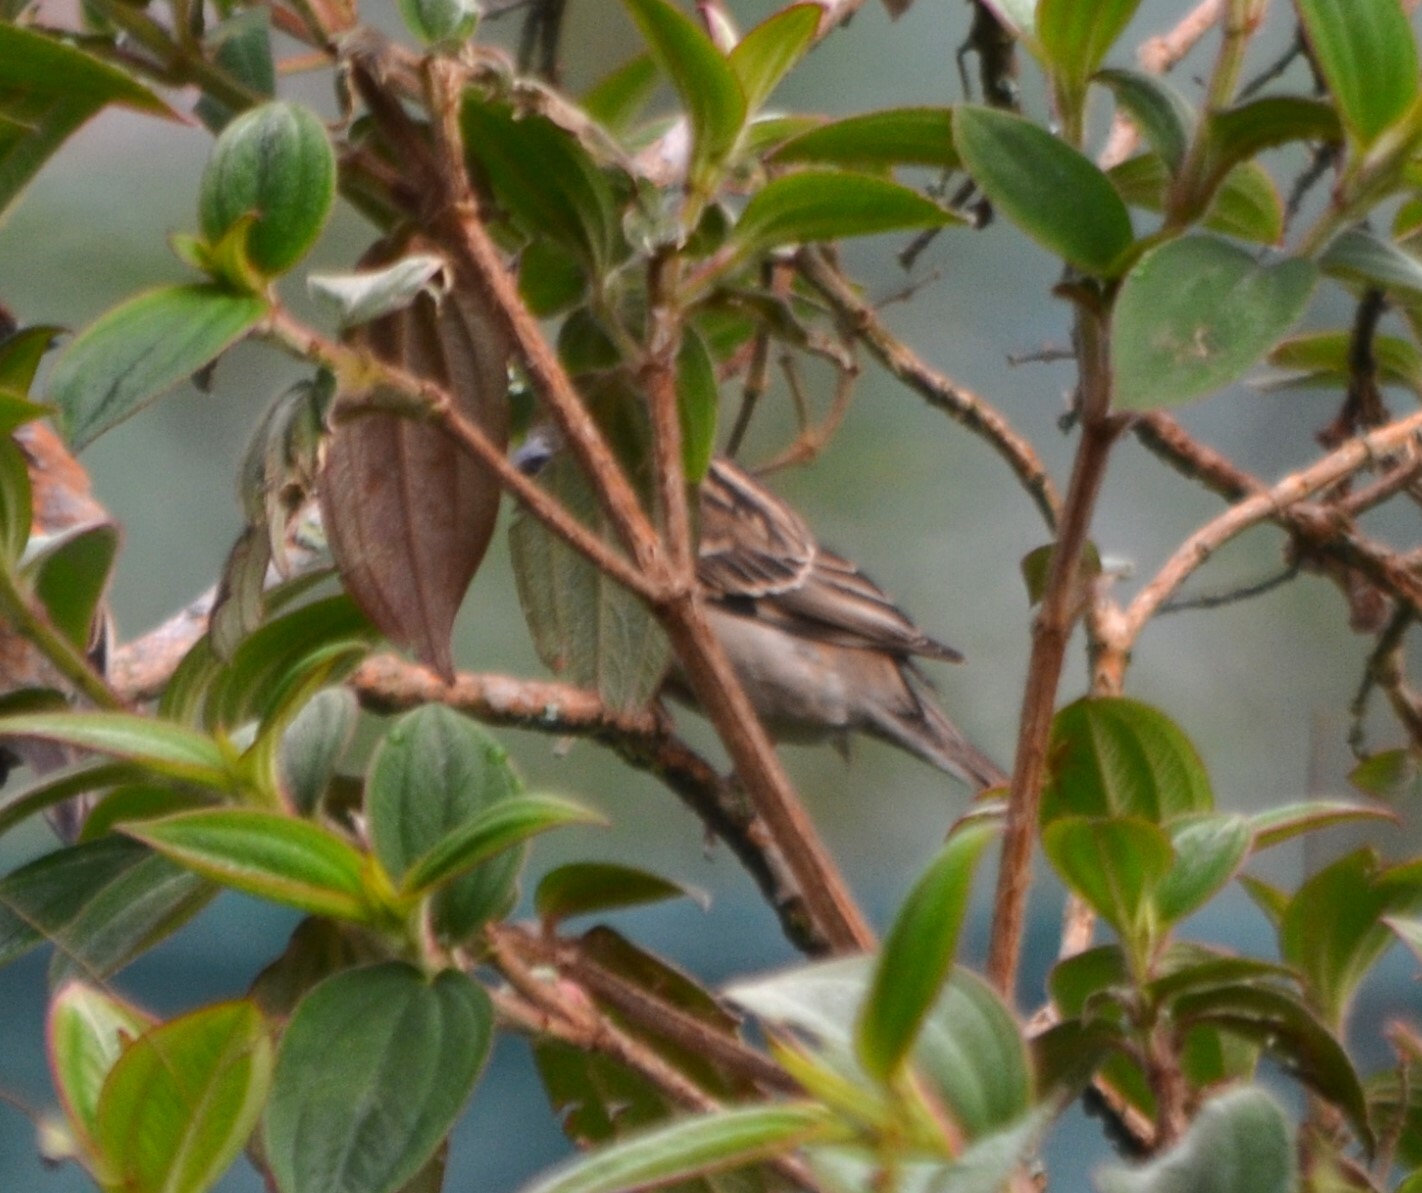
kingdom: Animalia
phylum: Chordata
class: Aves
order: Passeriformes
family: Passeridae
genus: Passer
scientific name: Passer cinnamomeus
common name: Russet sparrow
